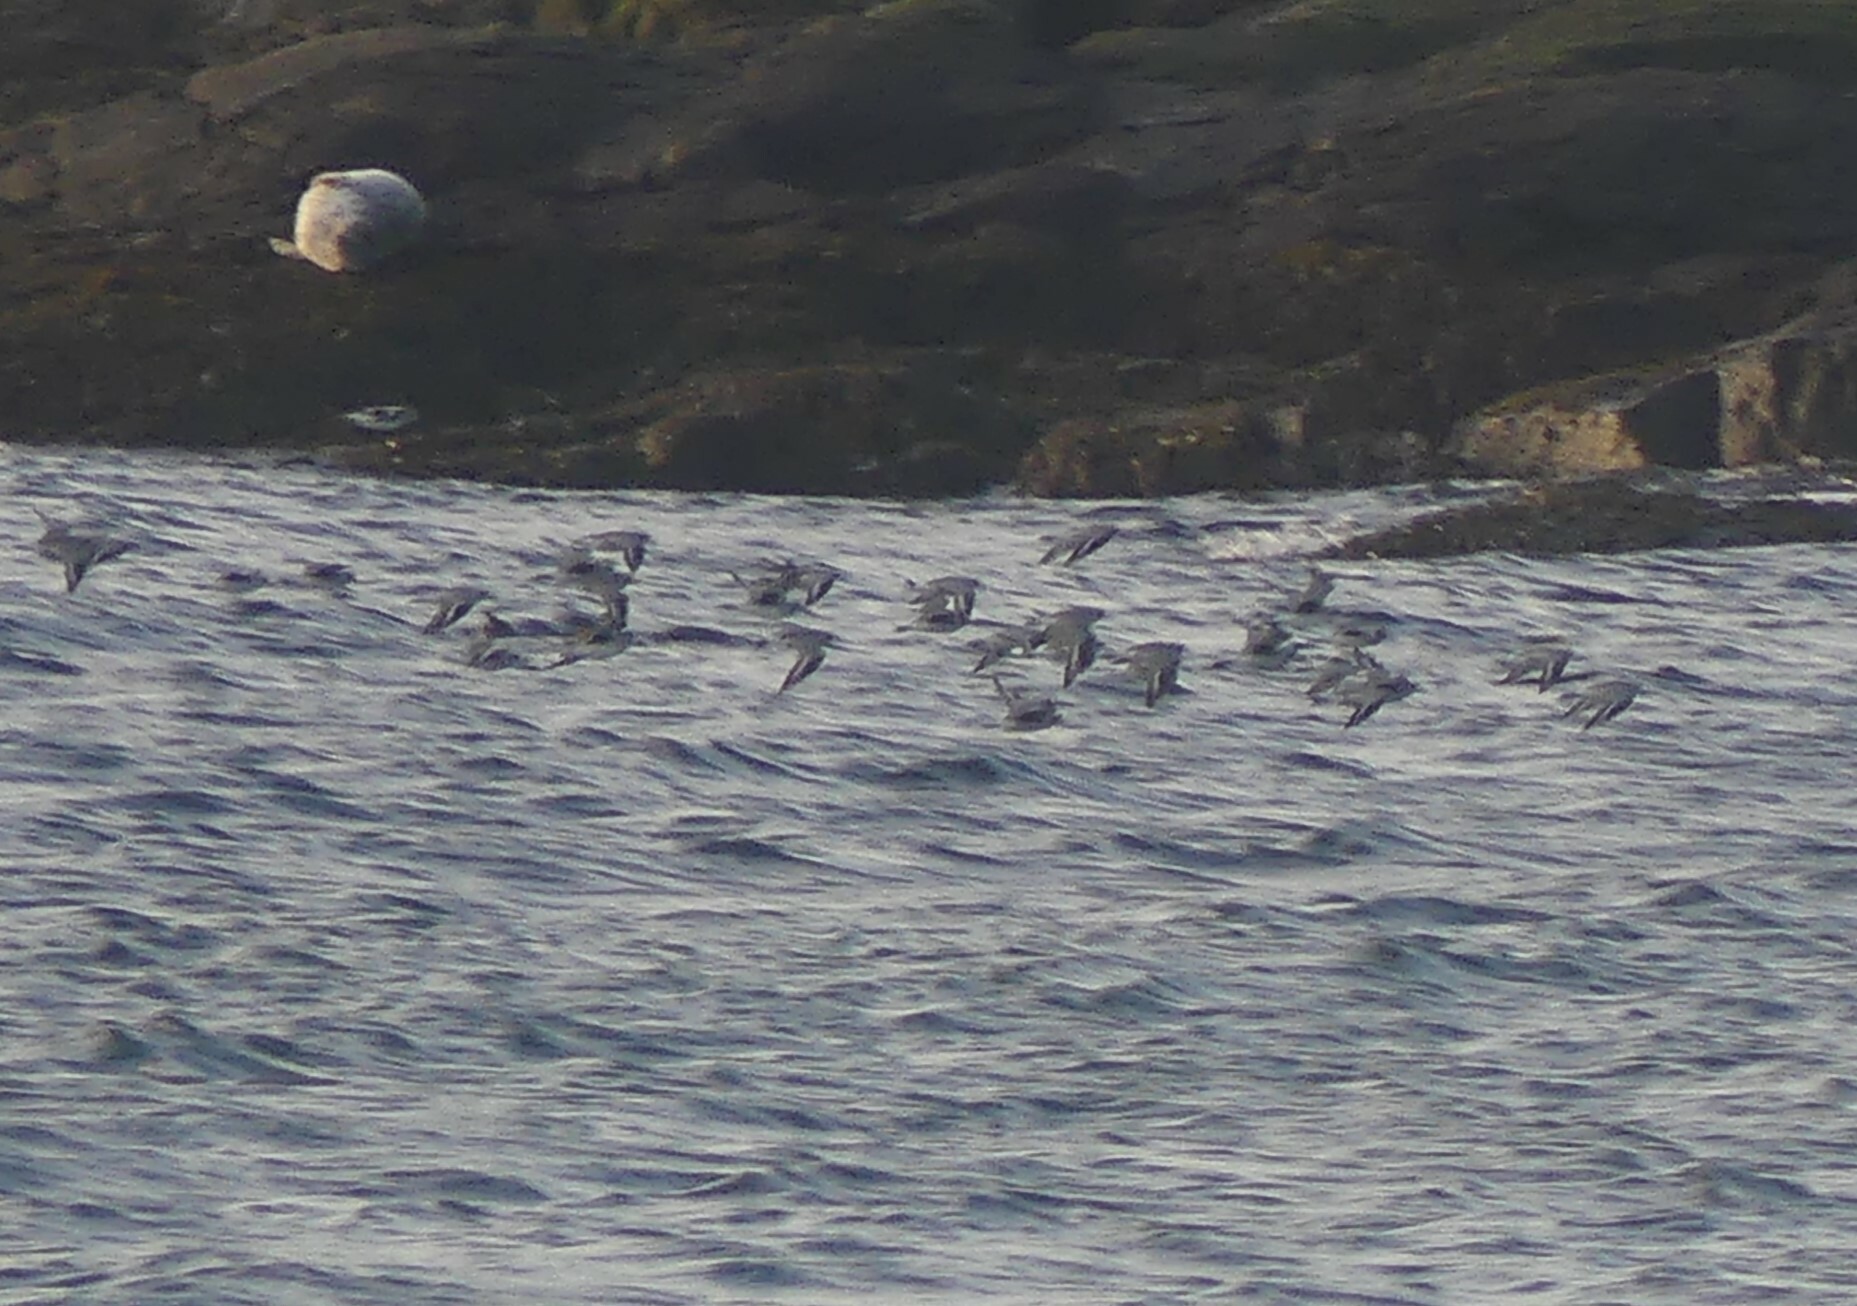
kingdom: Animalia
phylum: Chordata
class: Aves
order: Charadriiformes
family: Charadriidae
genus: Pluvialis
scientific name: Pluvialis squatarola
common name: Grey plover
